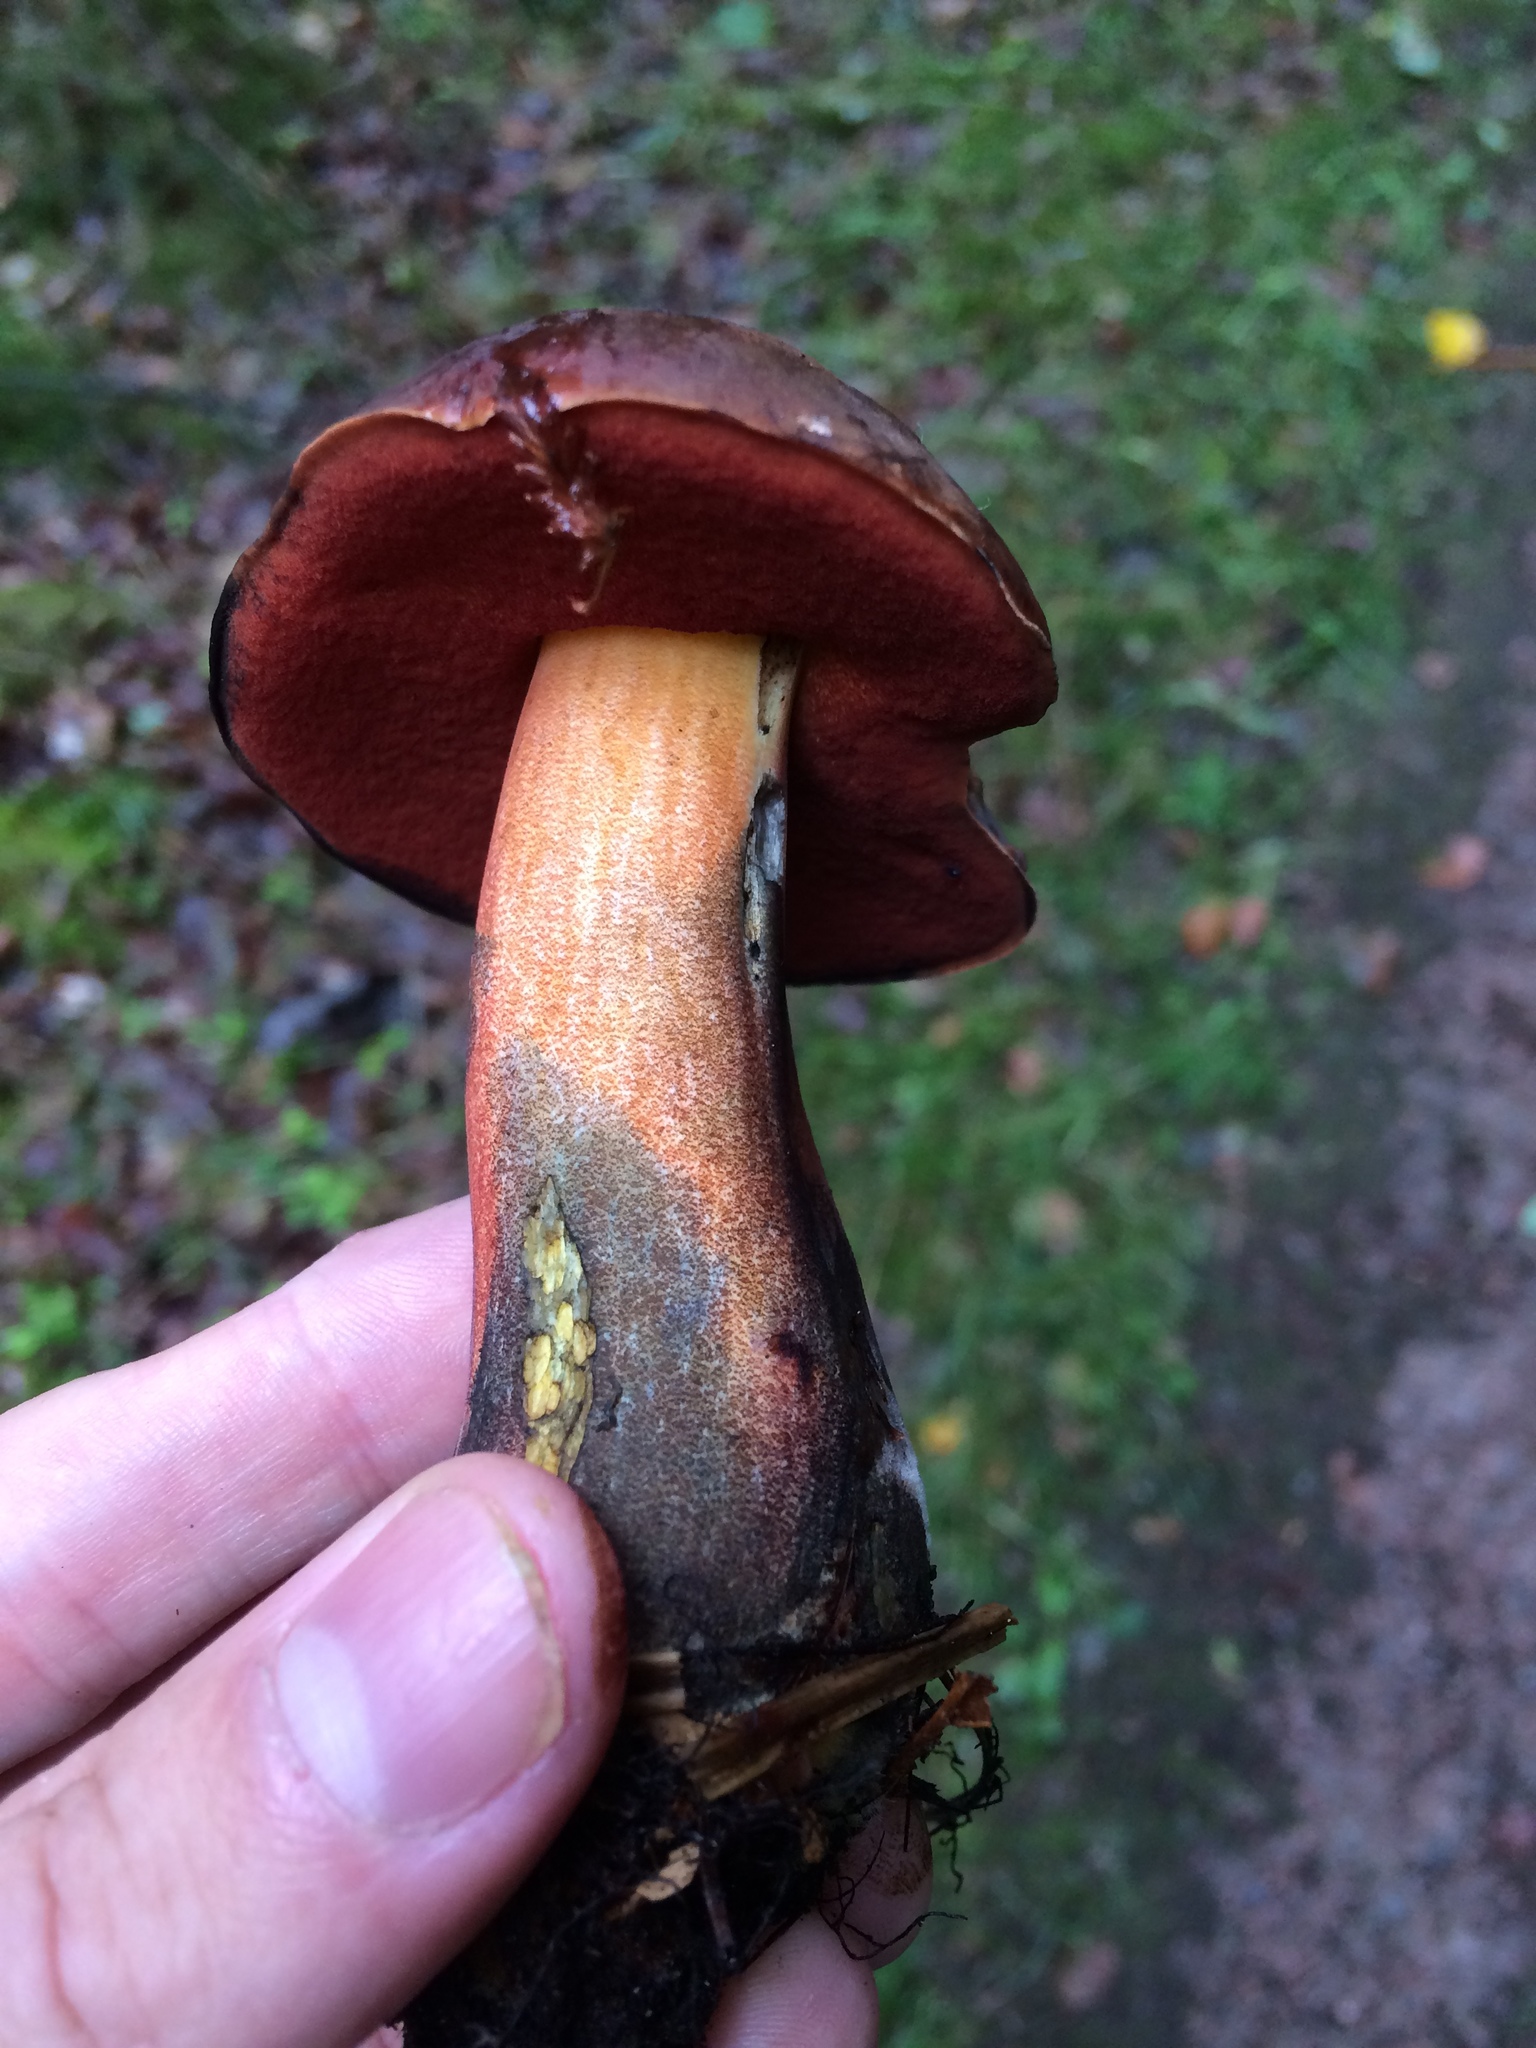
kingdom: Fungi
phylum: Basidiomycota
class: Agaricomycetes
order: Boletales
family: Boletaceae
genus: Neoboletus
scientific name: Neoboletus luridiformis
